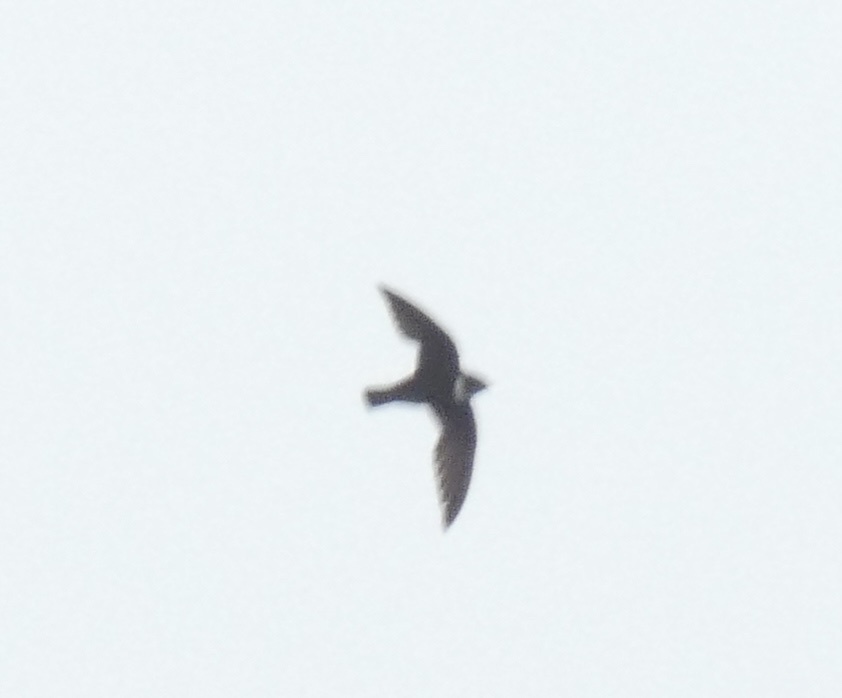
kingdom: Animalia
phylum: Chordata
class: Aves
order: Apodiformes
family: Apodidae
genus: Streptoprocne
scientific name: Streptoprocne biscutata
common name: Biscutate swift
